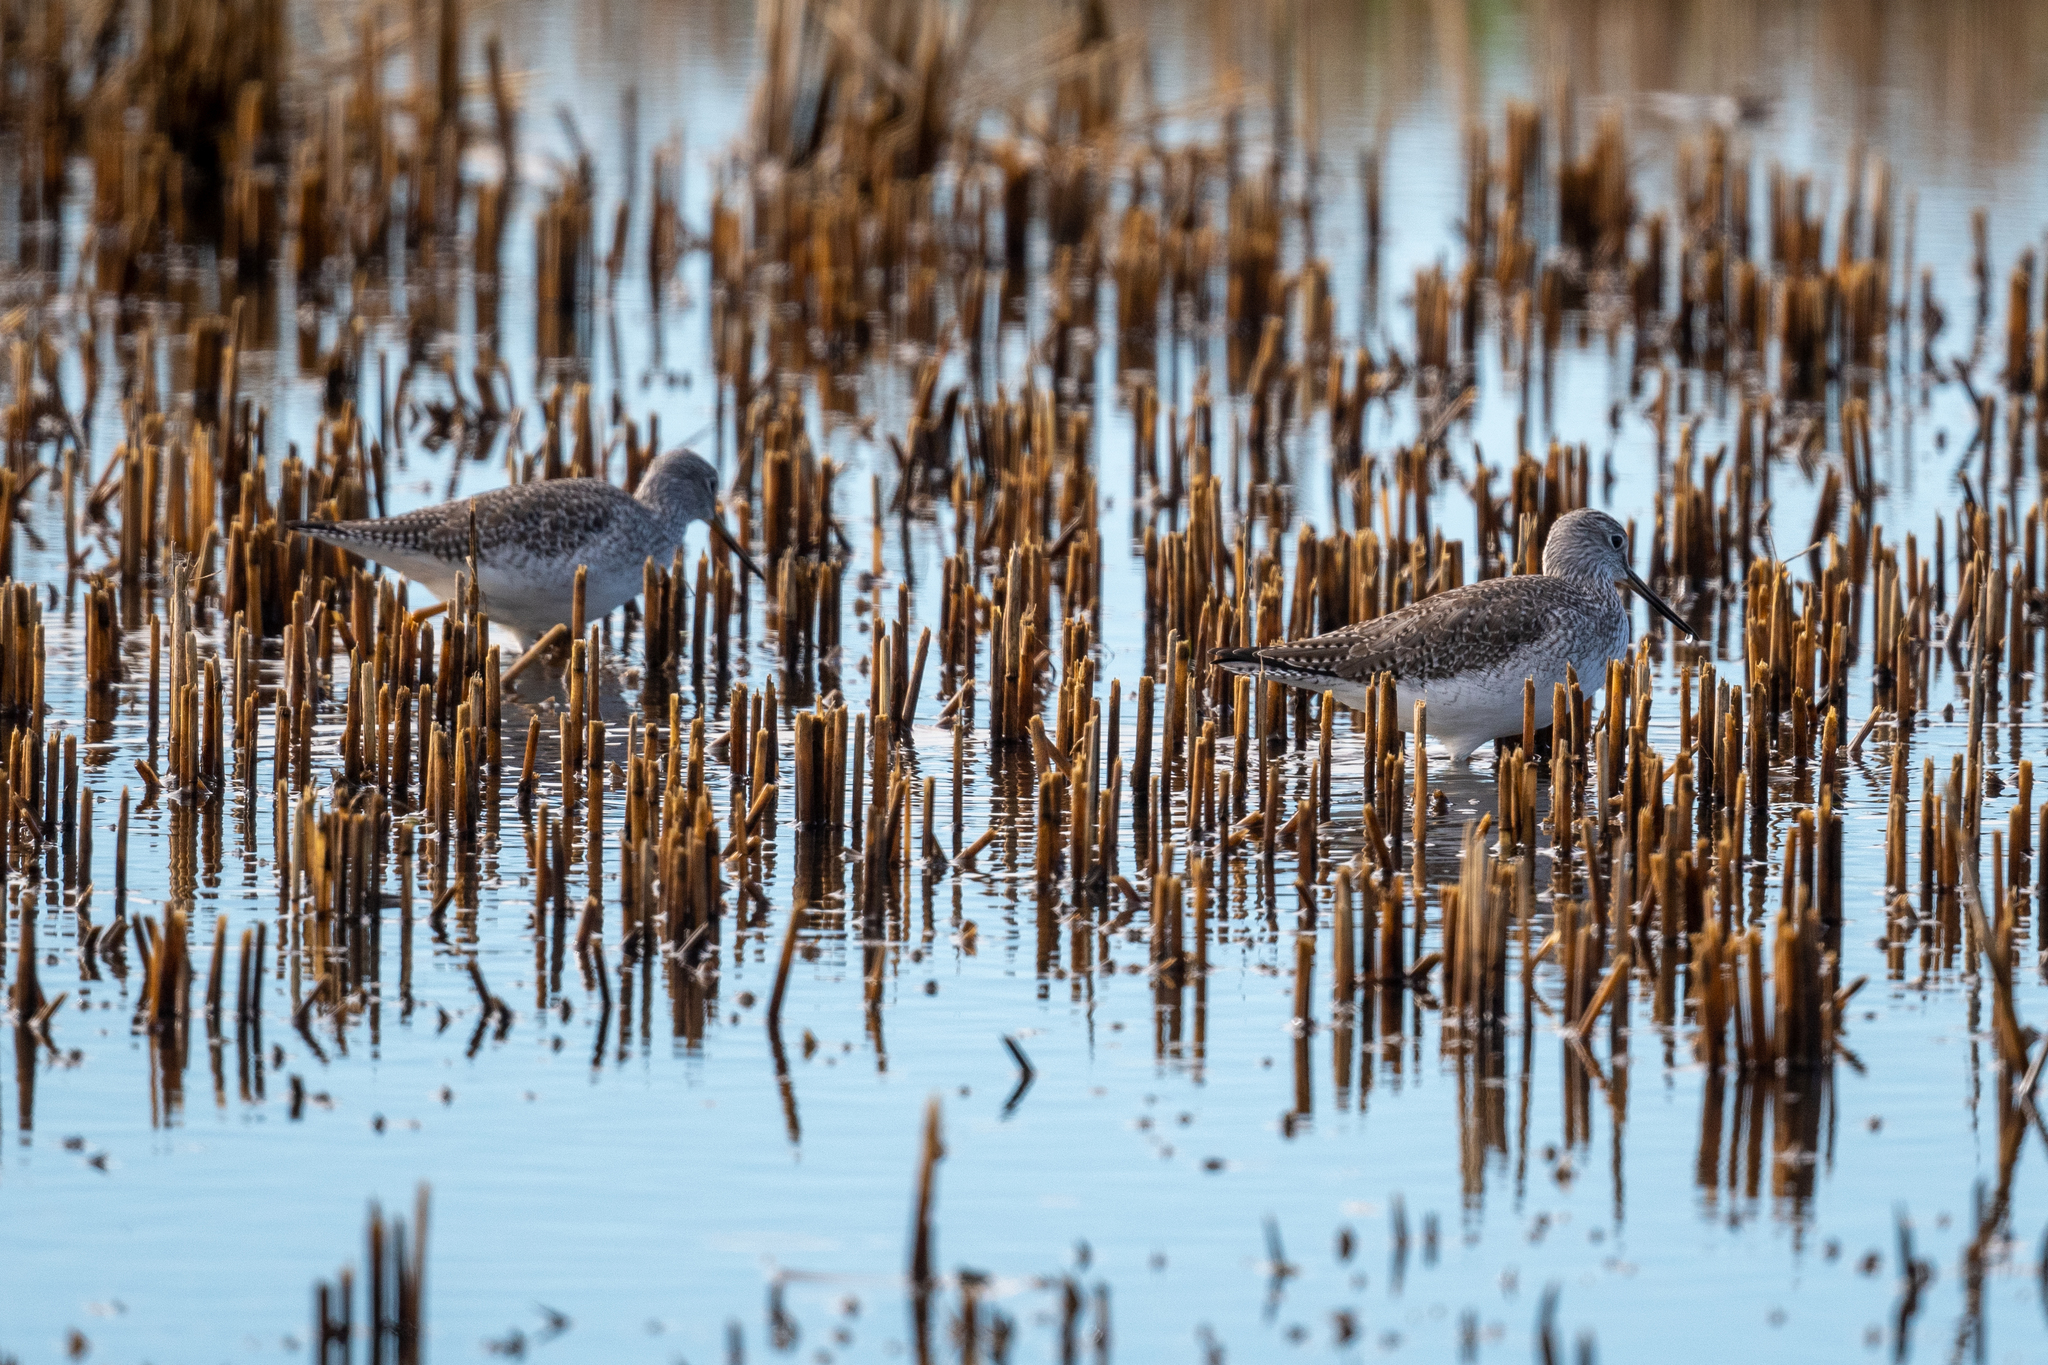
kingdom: Animalia
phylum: Chordata
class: Aves
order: Charadriiformes
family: Scolopacidae
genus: Tringa
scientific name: Tringa melanoleuca
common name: Greater yellowlegs
